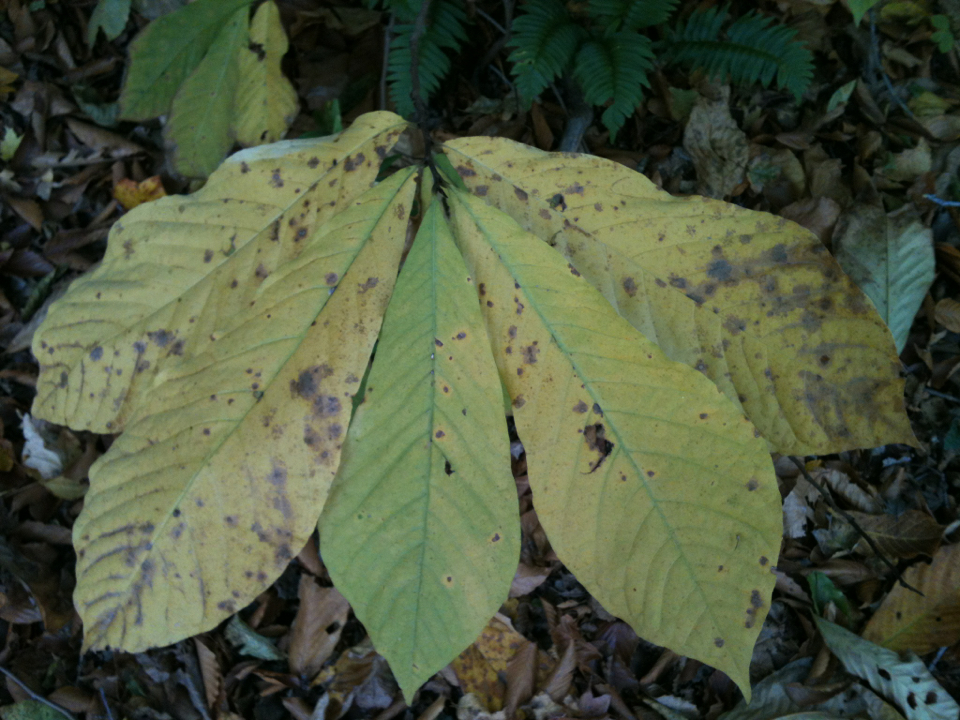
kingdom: Plantae
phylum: Tracheophyta
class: Magnoliopsida
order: Magnoliales
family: Annonaceae
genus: Asimina
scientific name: Asimina triloba
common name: Dog-banana
